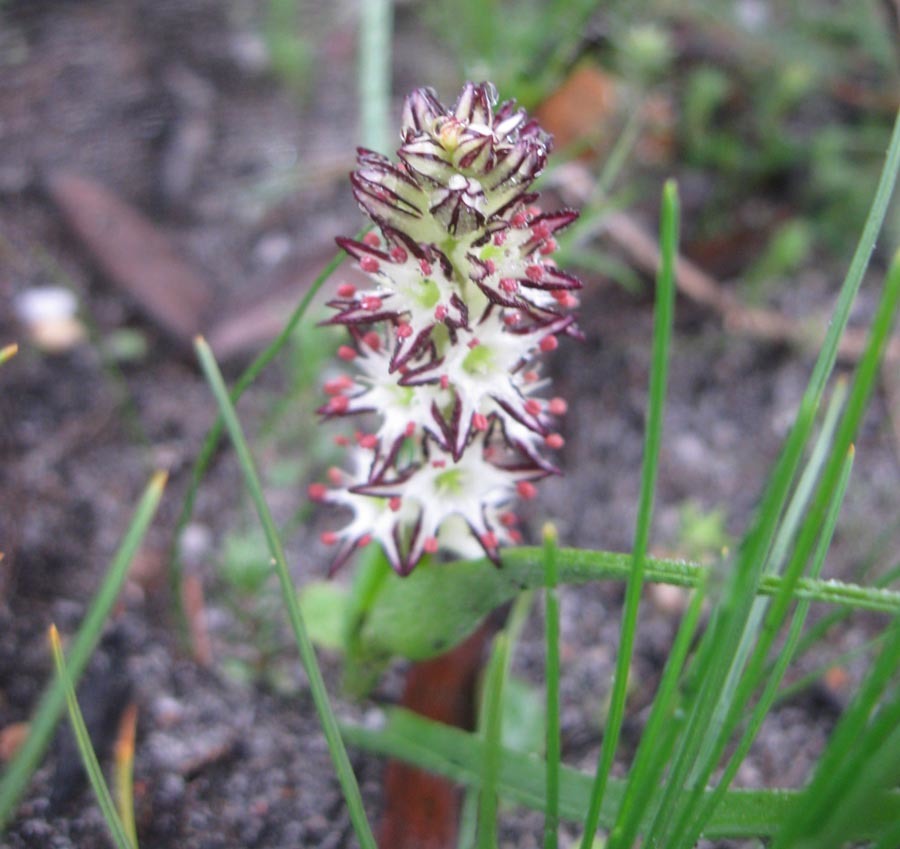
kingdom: Plantae
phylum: Tracheophyta
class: Liliopsida
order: Liliales
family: Colchicaceae
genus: Wurmbea
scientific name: Wurmbea hiemalis
